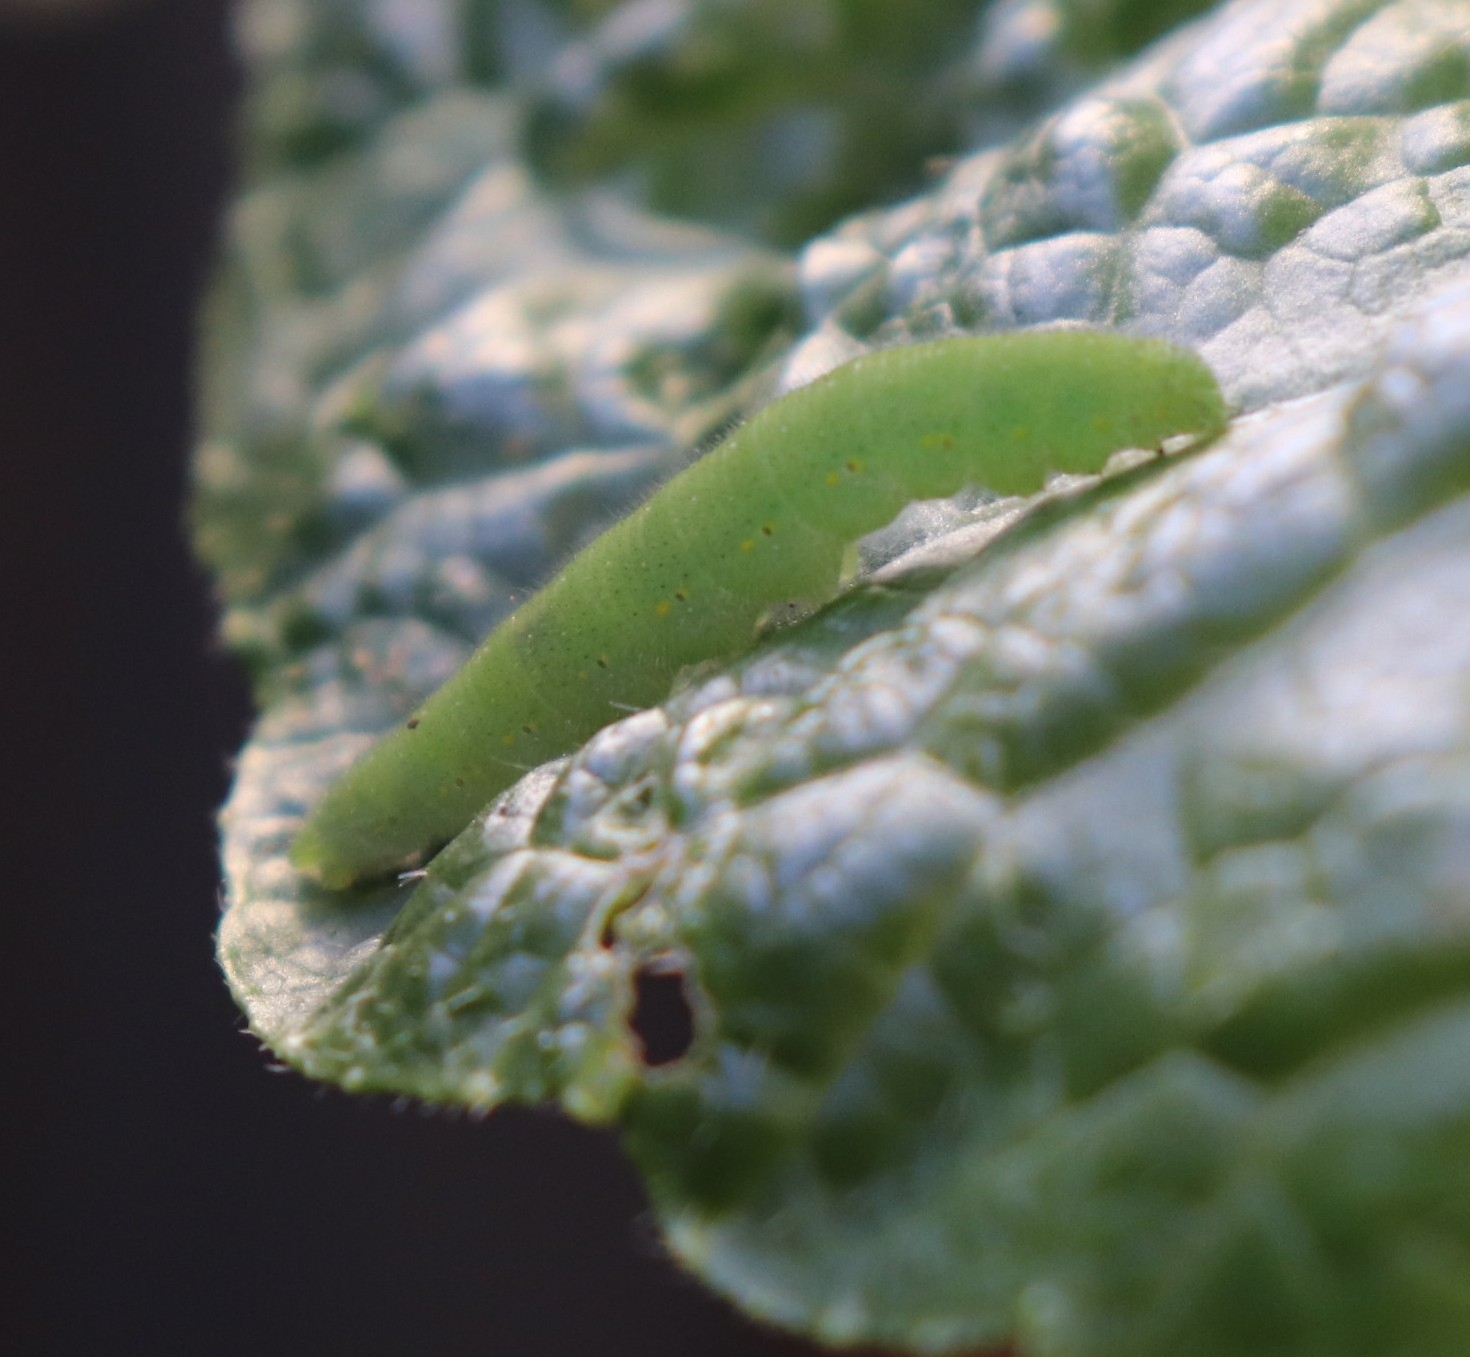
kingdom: Animalia
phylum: Arthropoda
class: Insecta
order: Lepidoptera
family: Pieridae
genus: Pieris
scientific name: Pieris rapae
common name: Small white
